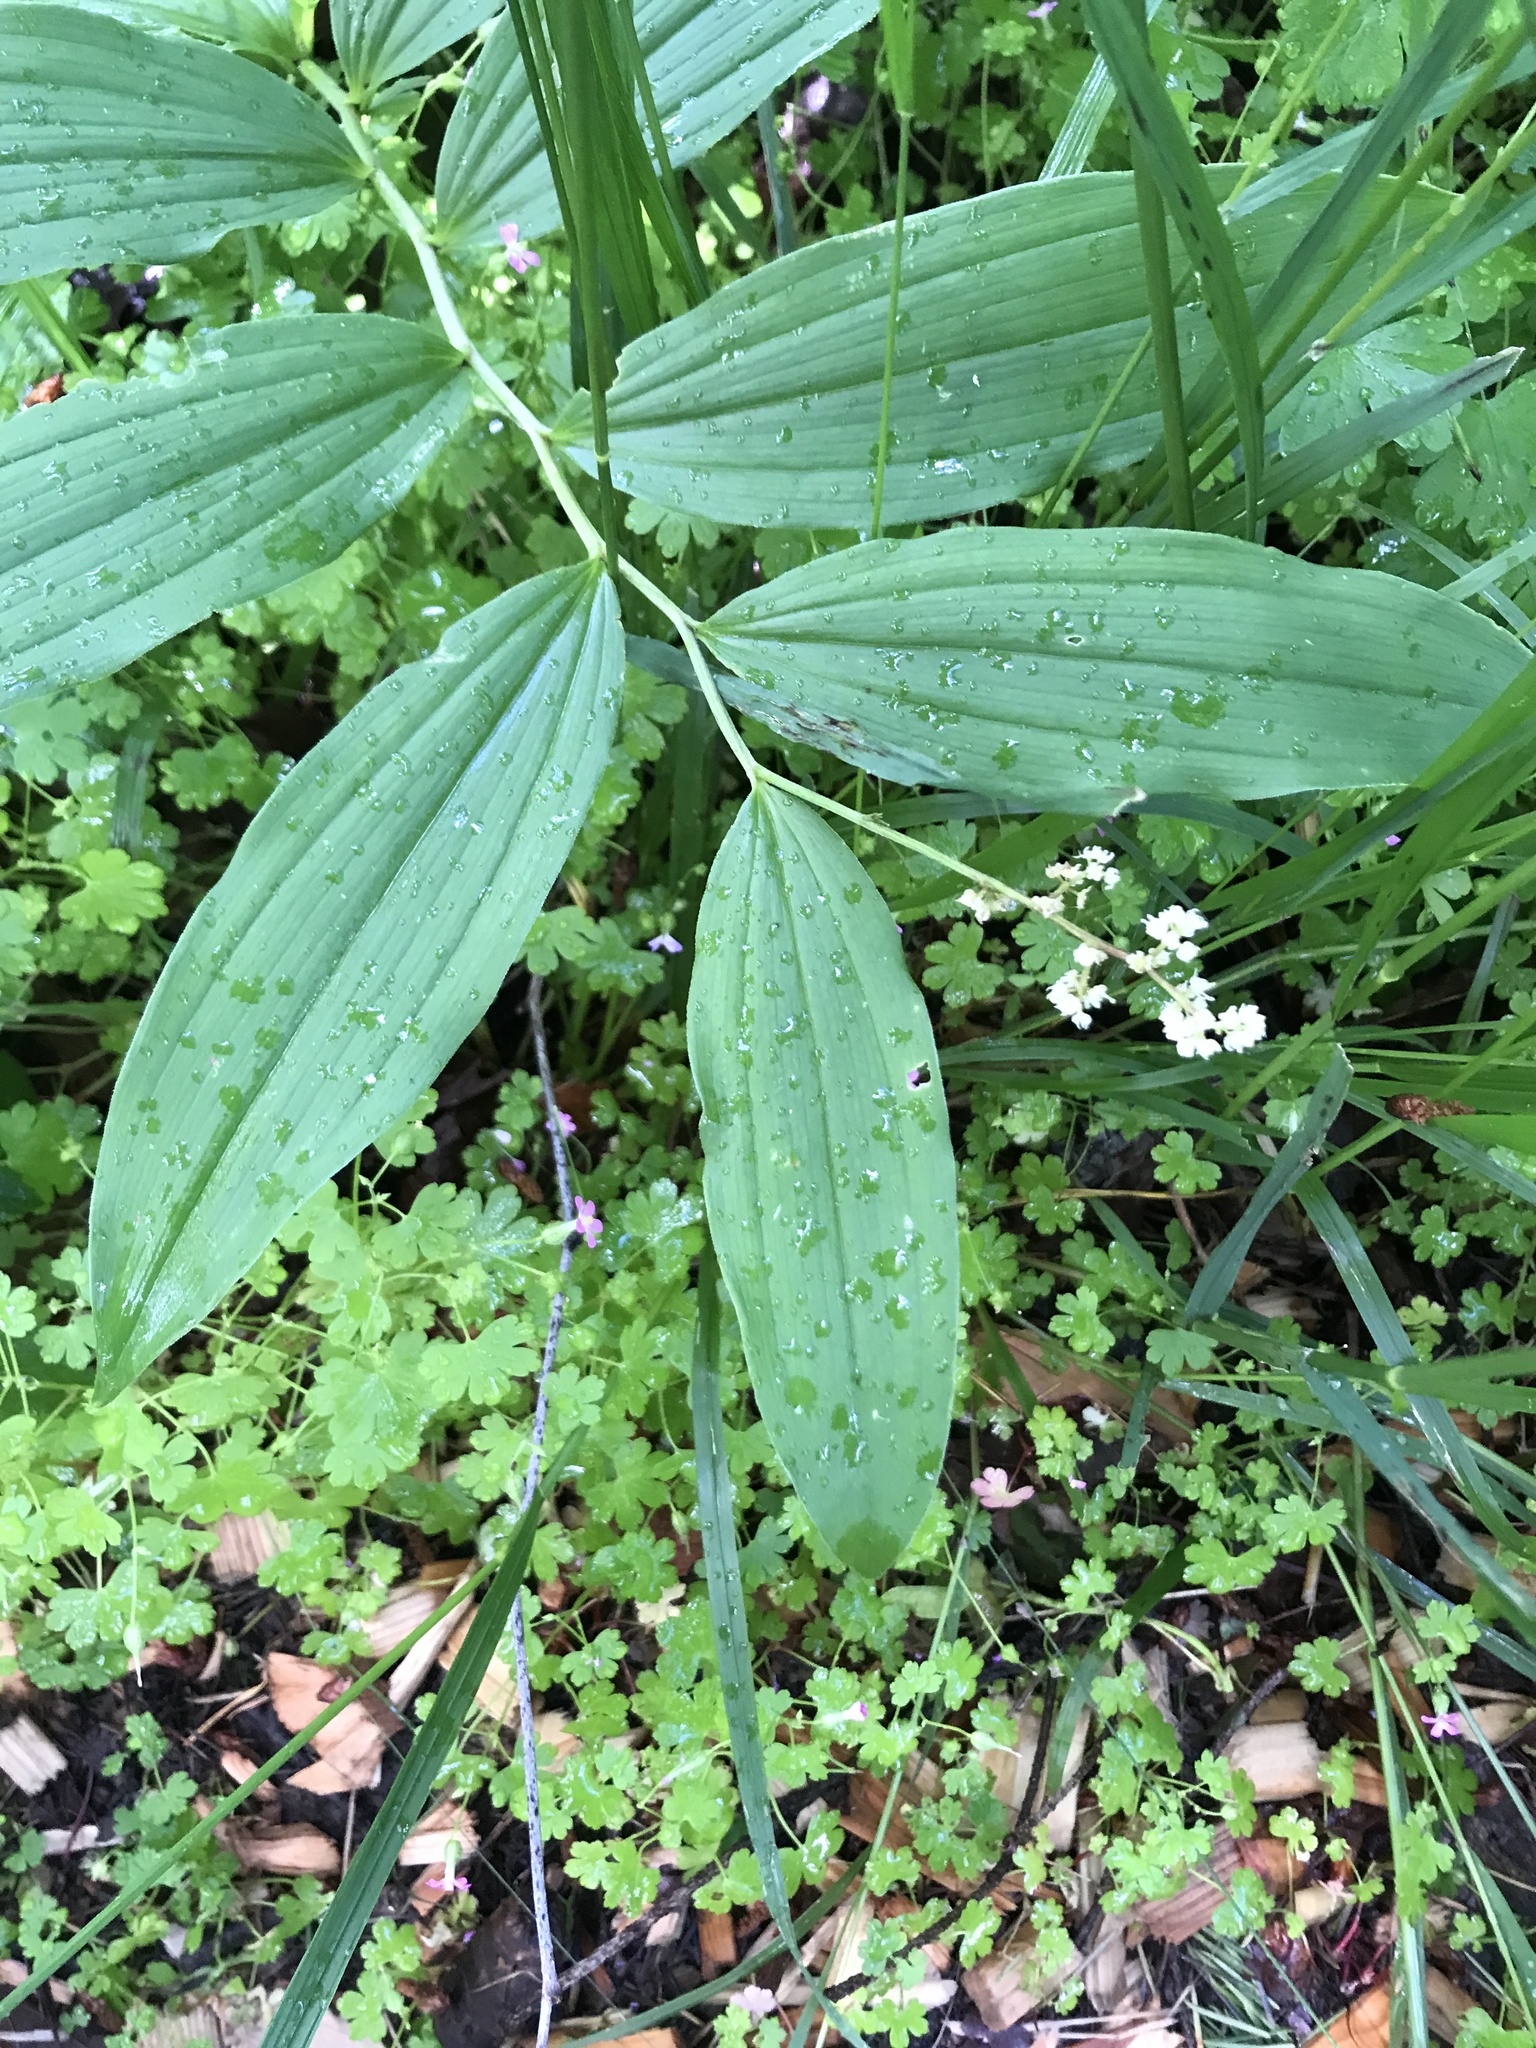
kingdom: Plantae
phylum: Tracheophyta
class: Liliopsida
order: Asparagales
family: Asparagaceae
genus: Maianthemum
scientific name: Maianthemum racemosum
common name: False spikenard
